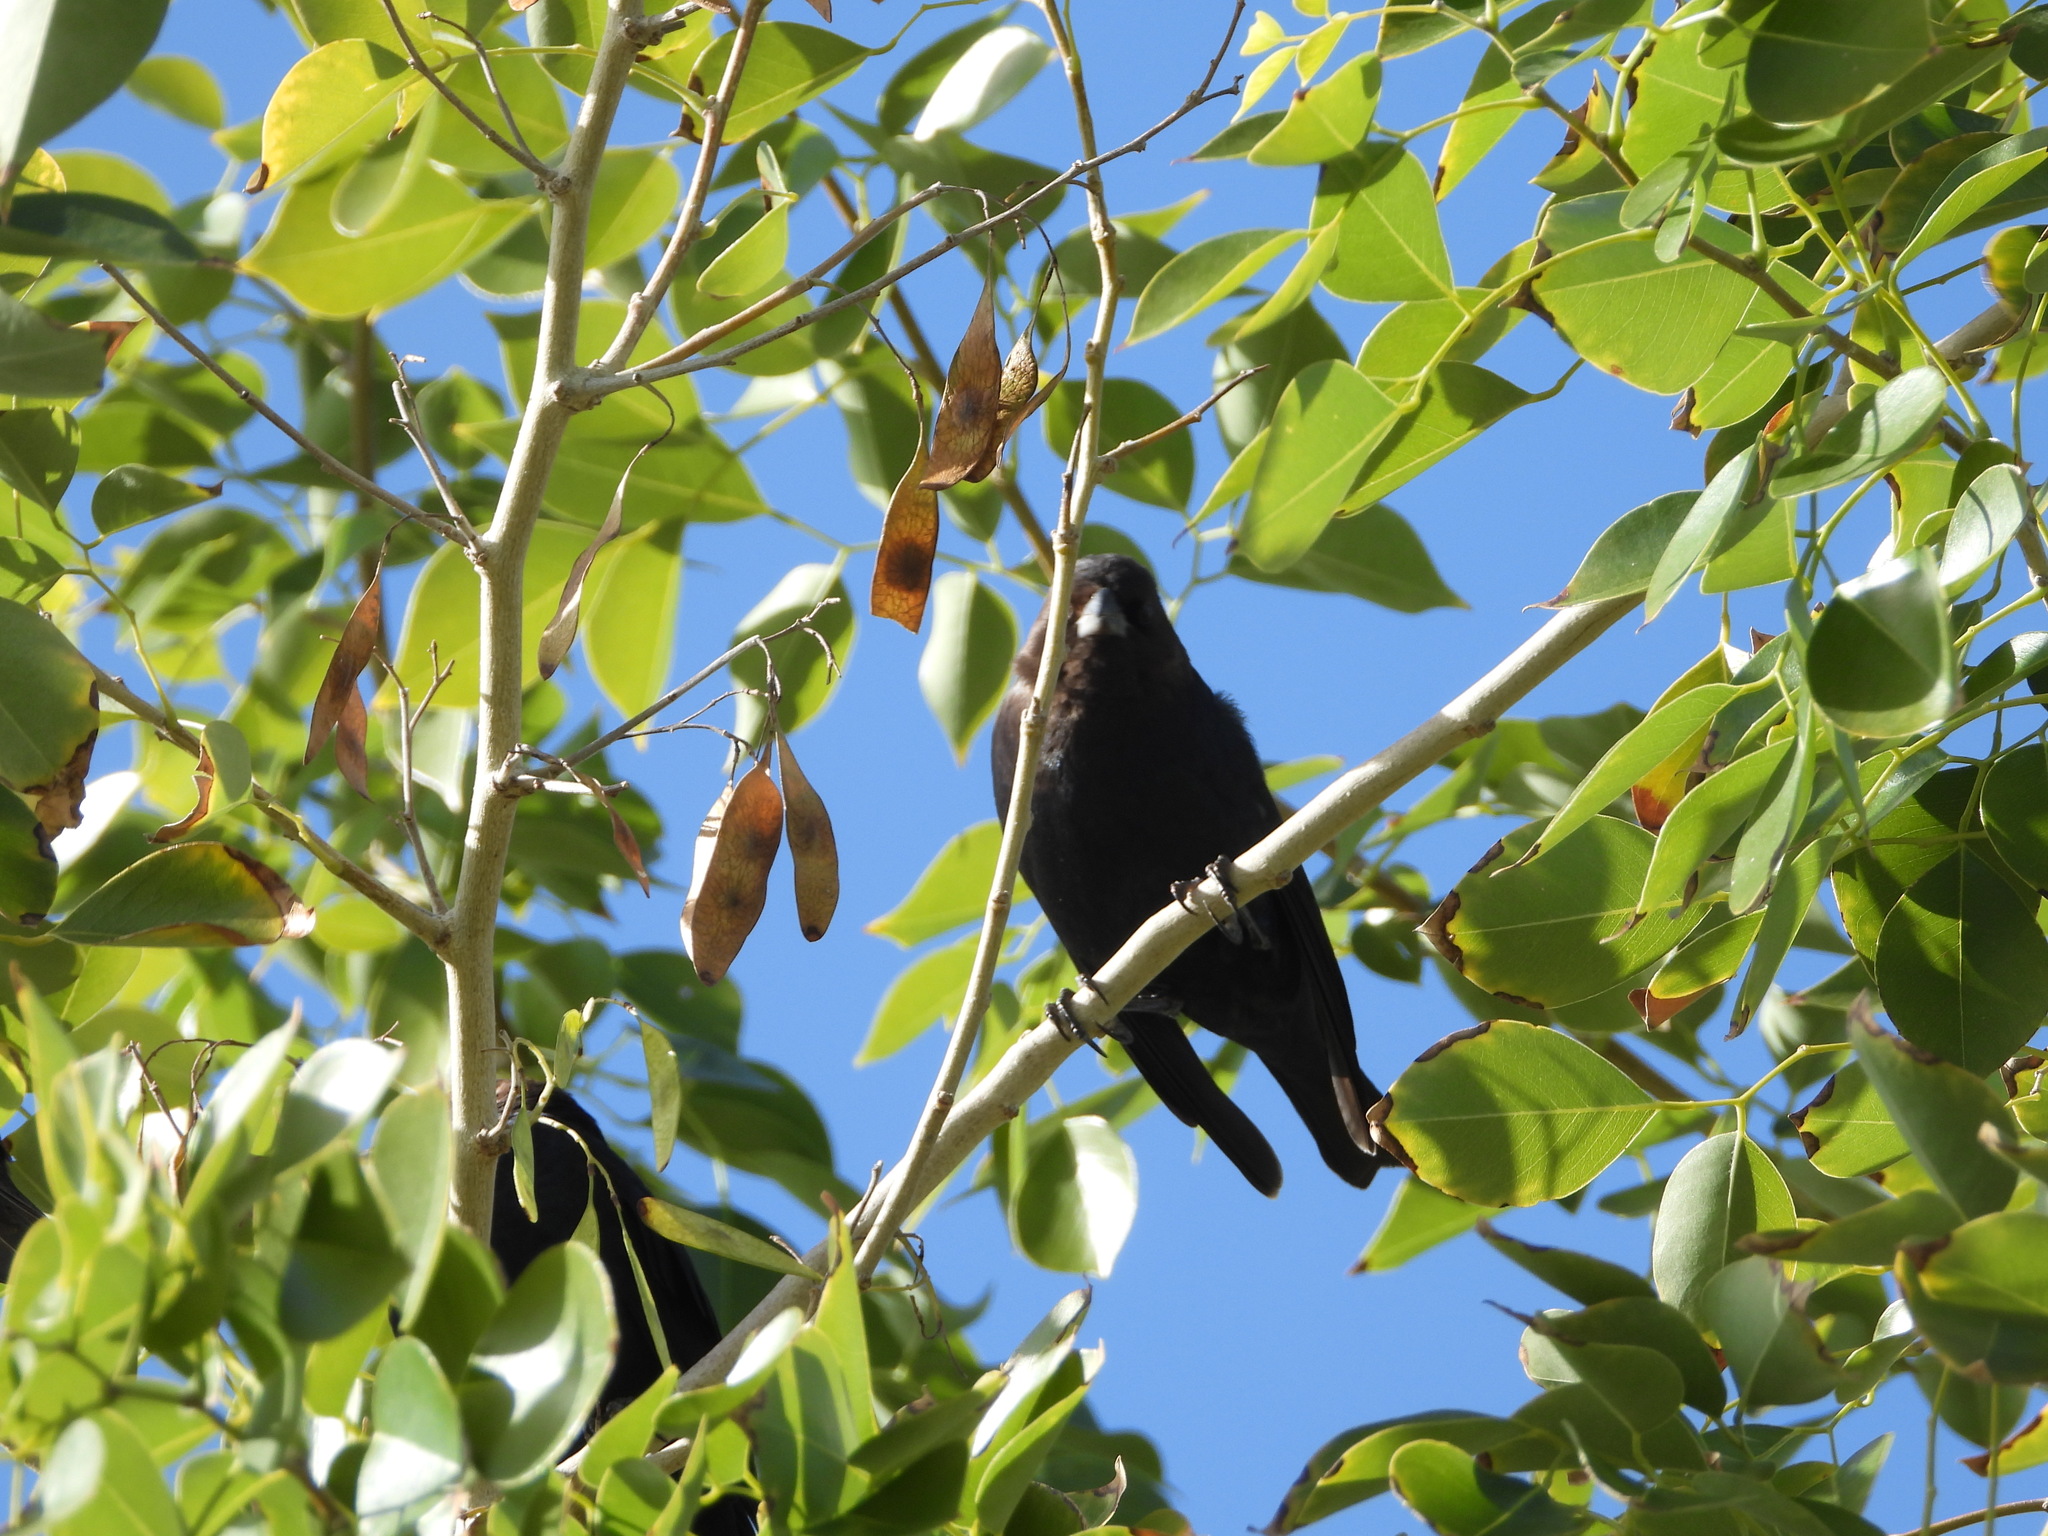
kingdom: Animalia
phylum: Chordata
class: Aves
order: Passeriformes
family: Icteridae
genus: Molothrus
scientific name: Molothrus aeneus
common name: Bronzed cowbird
